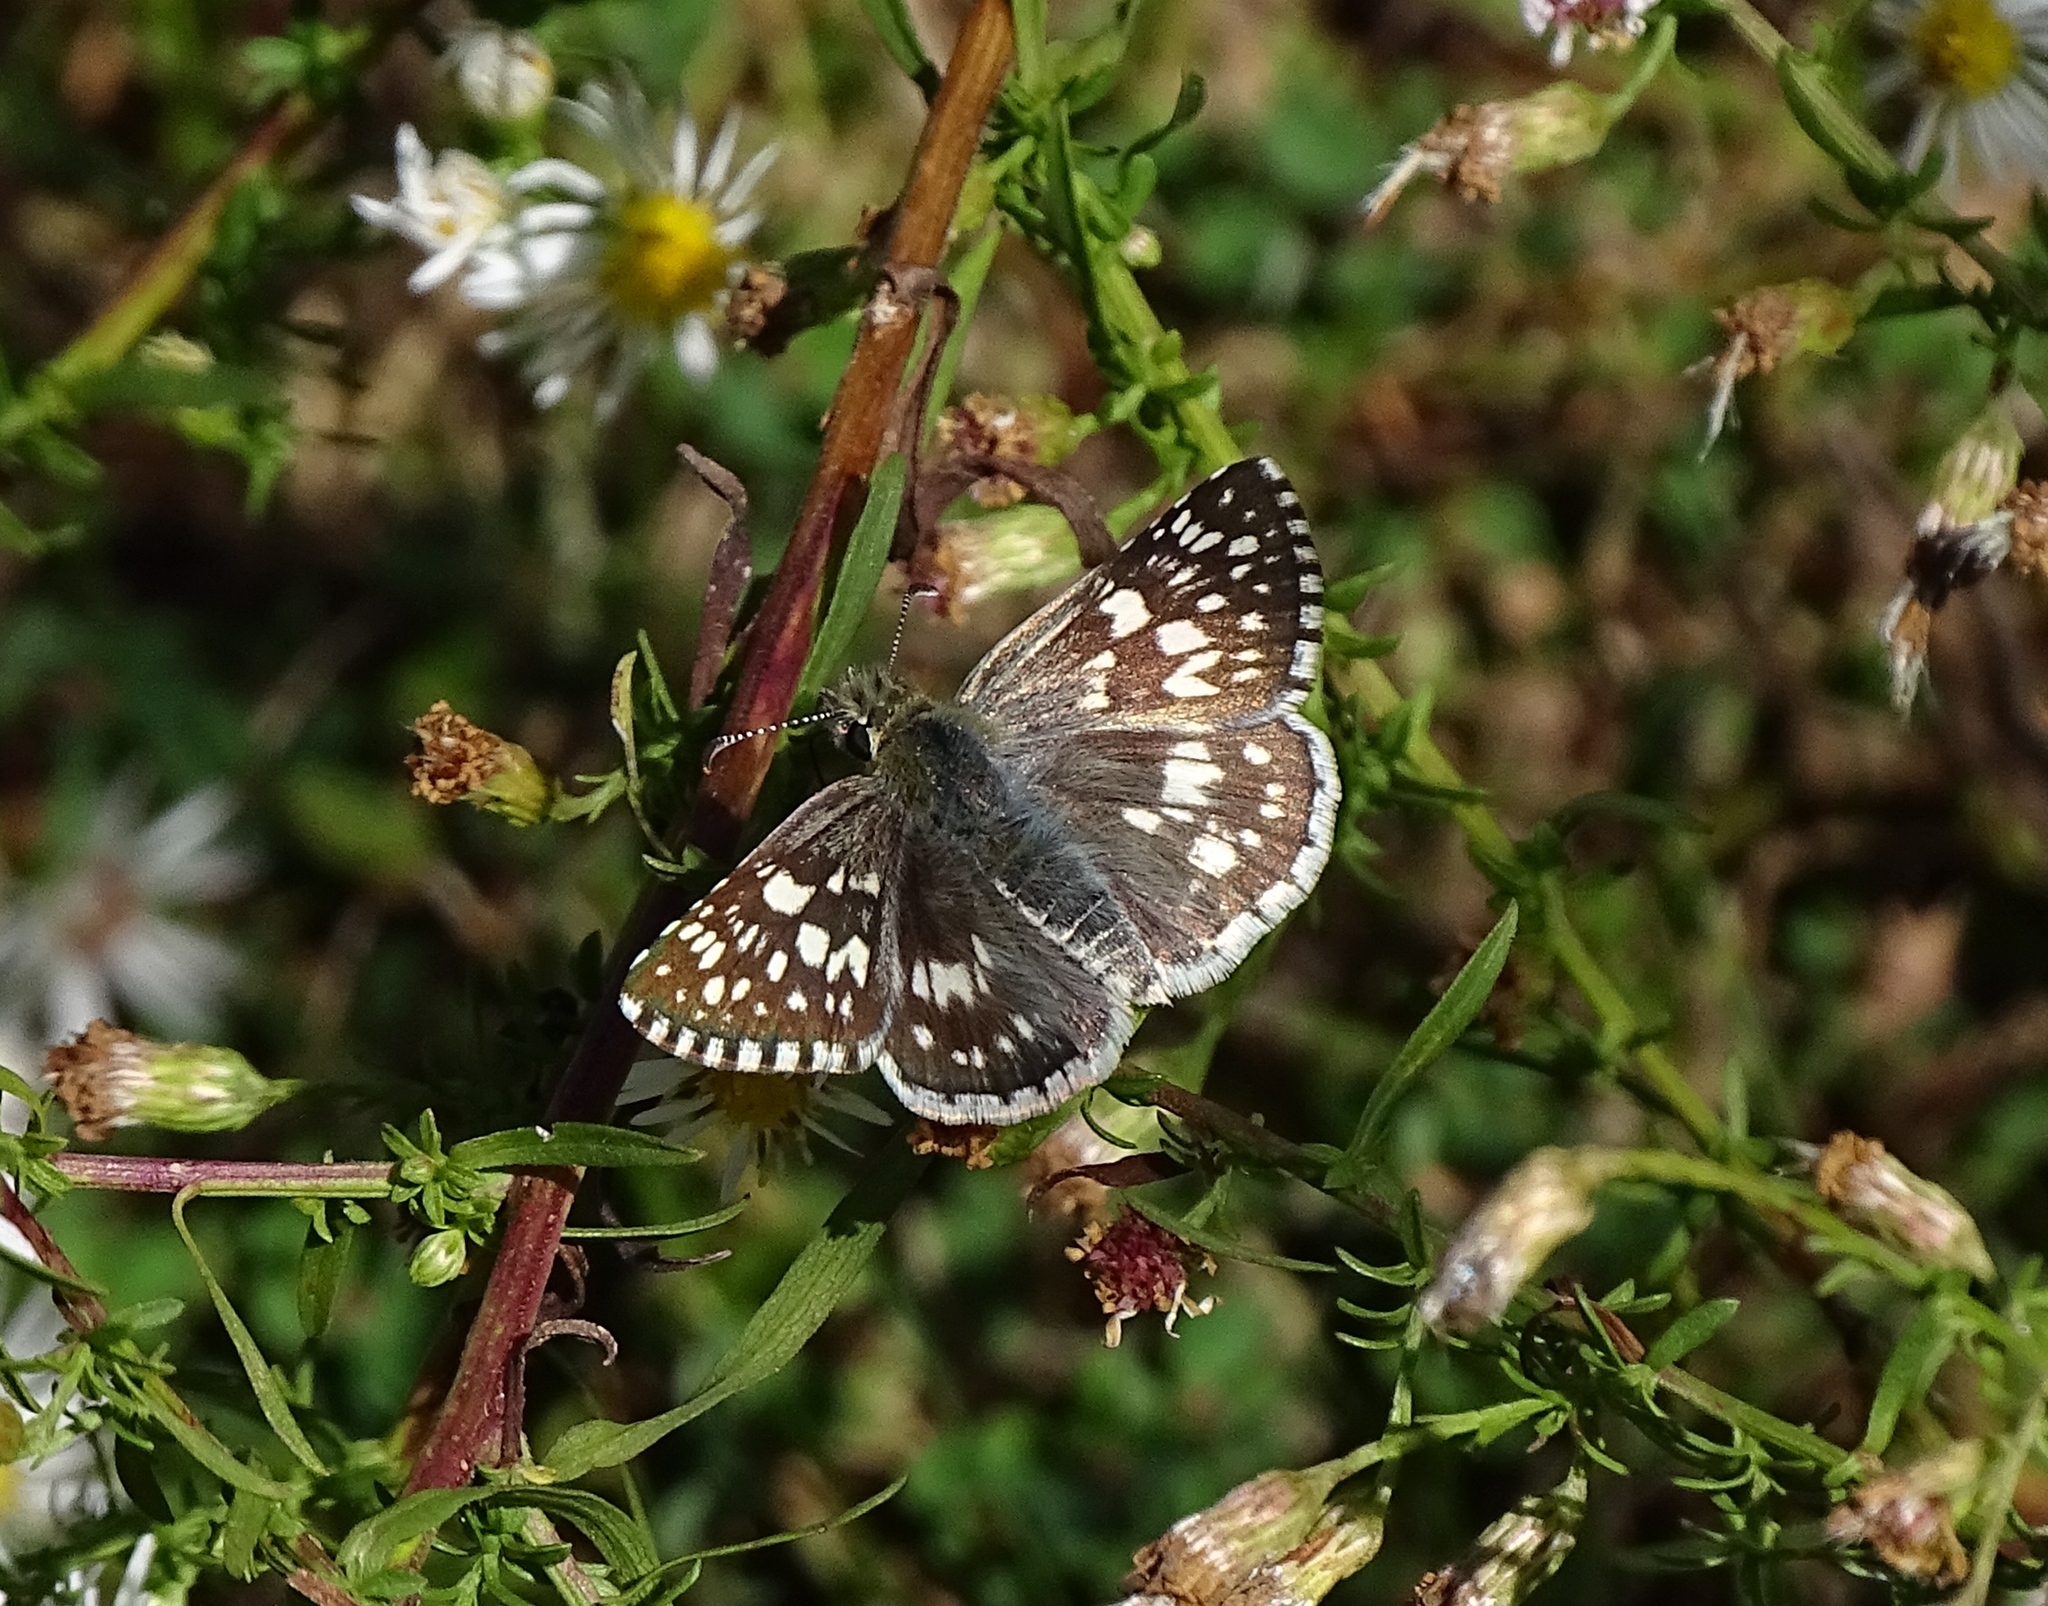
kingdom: Animalia
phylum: Arthropoda
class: Insecta
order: Lepidoptera
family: Hesperiidae
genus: Burnsius
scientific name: Burnsius communis
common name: Common checkered-skipper
